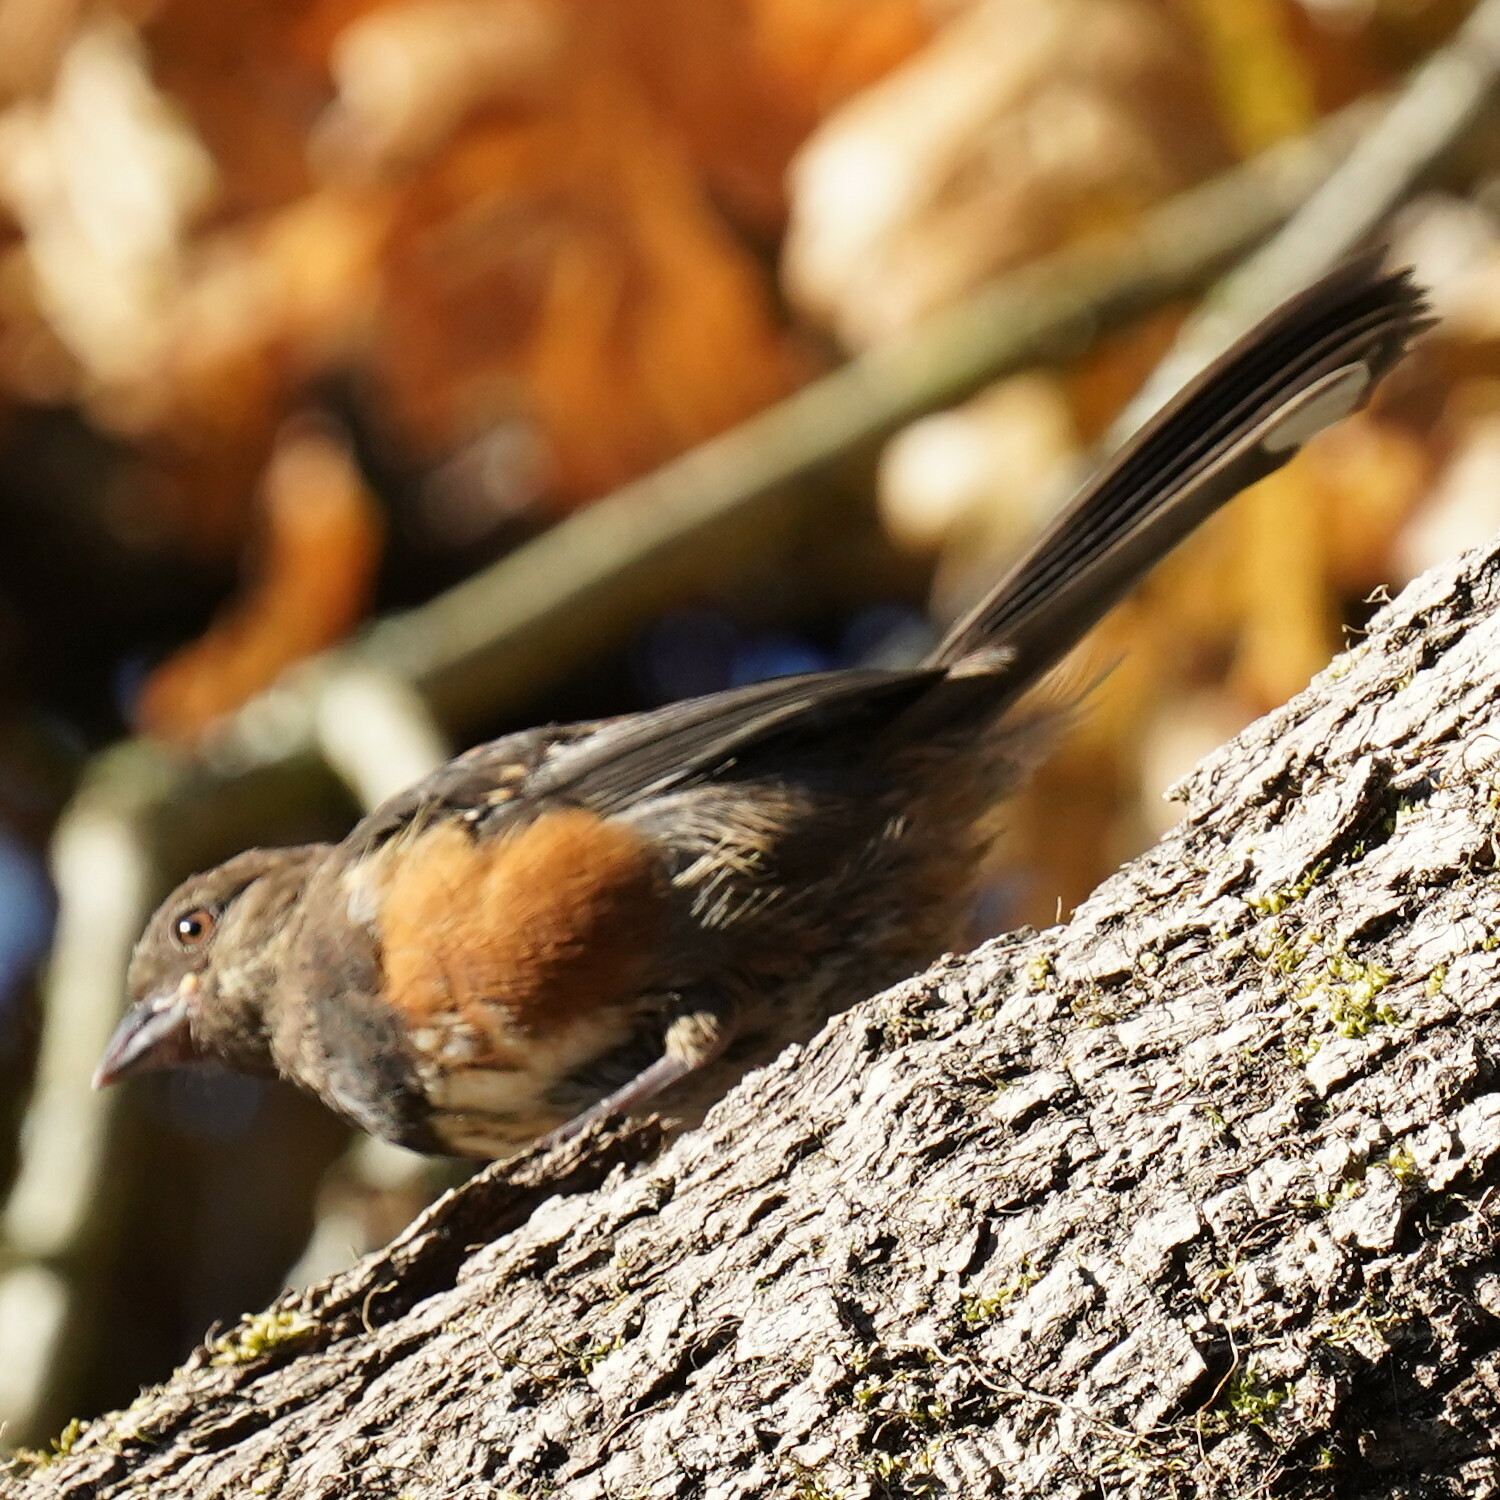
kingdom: Animalia
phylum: Chordata
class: Aves
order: Passeriformes
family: Passerellidae
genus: Pipilo
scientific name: Pipilo maculatus
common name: Spotted towhee
